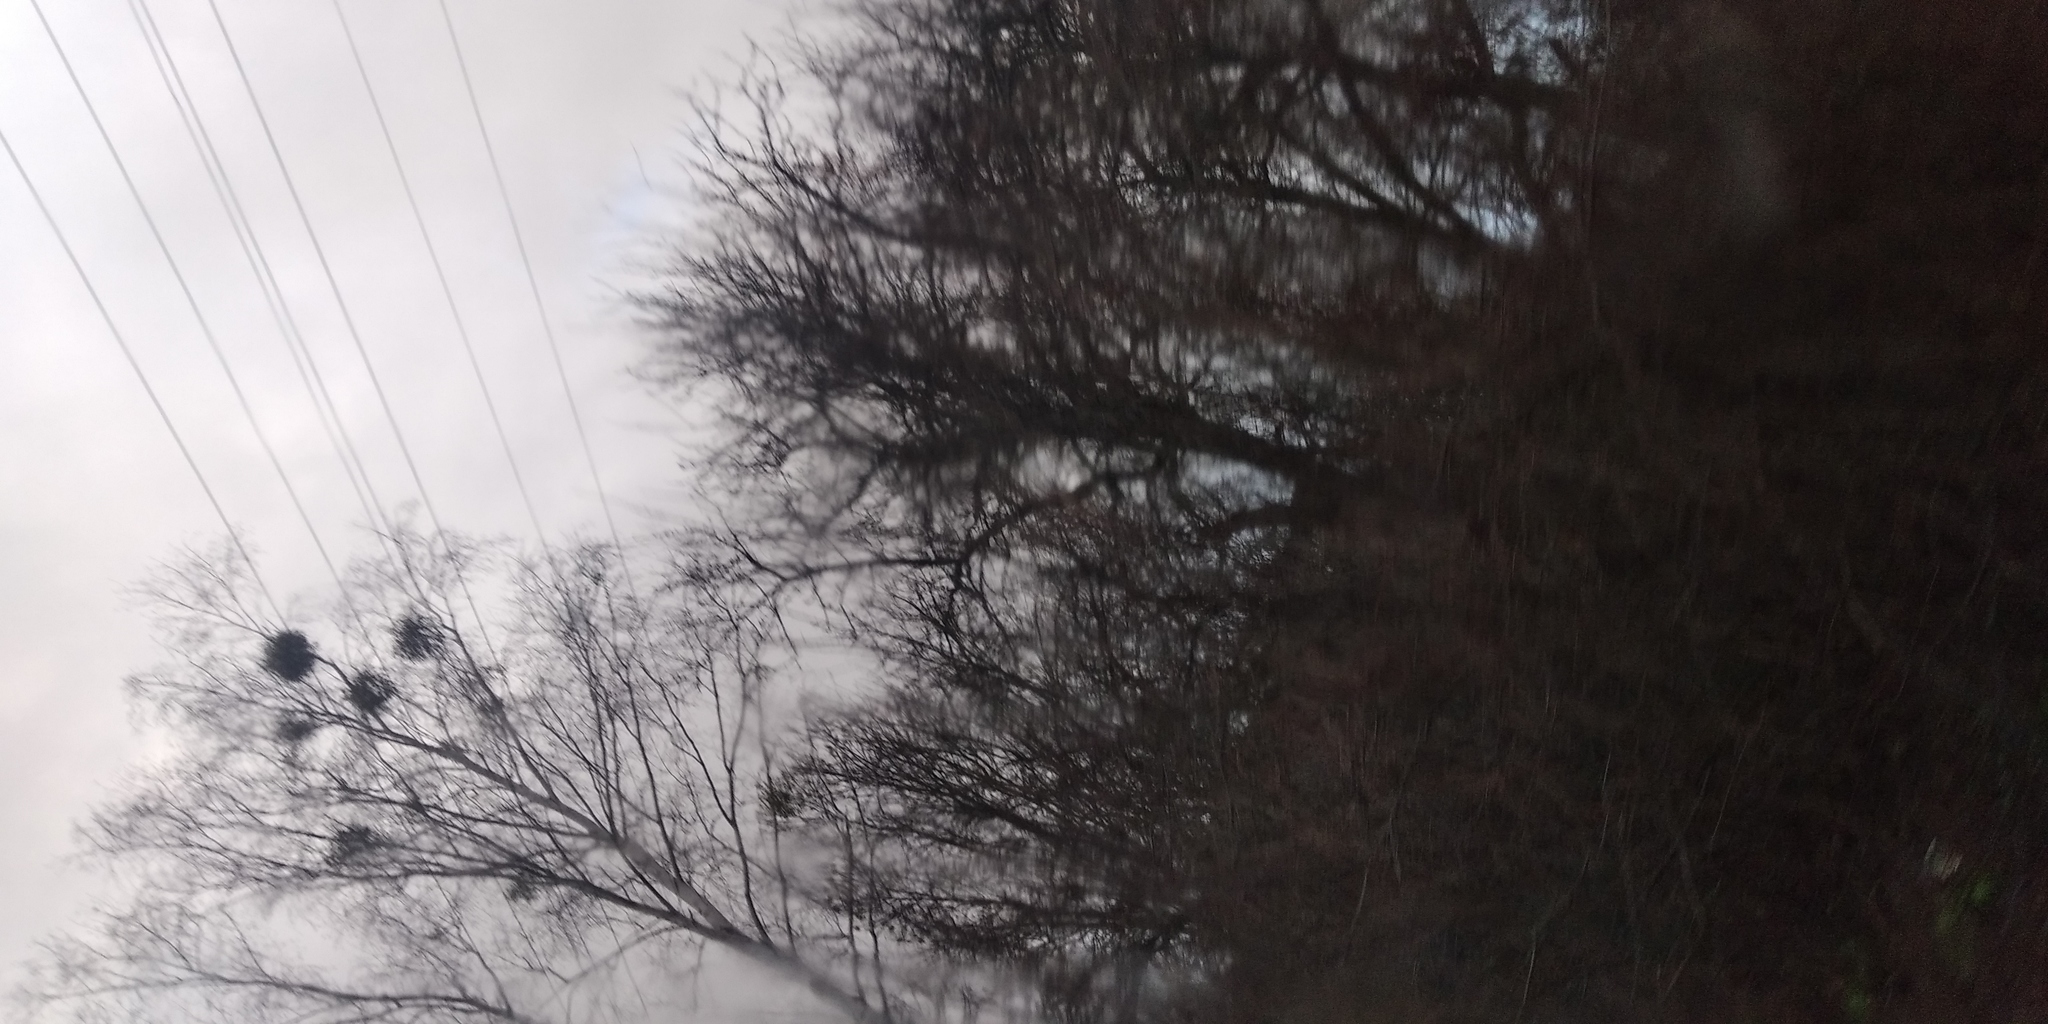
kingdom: Plantae
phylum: Tracheophyta
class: Magnoliopsida
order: Santalales
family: Viscaceae
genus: Viscum
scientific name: Viscum album
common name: Mistletoe
